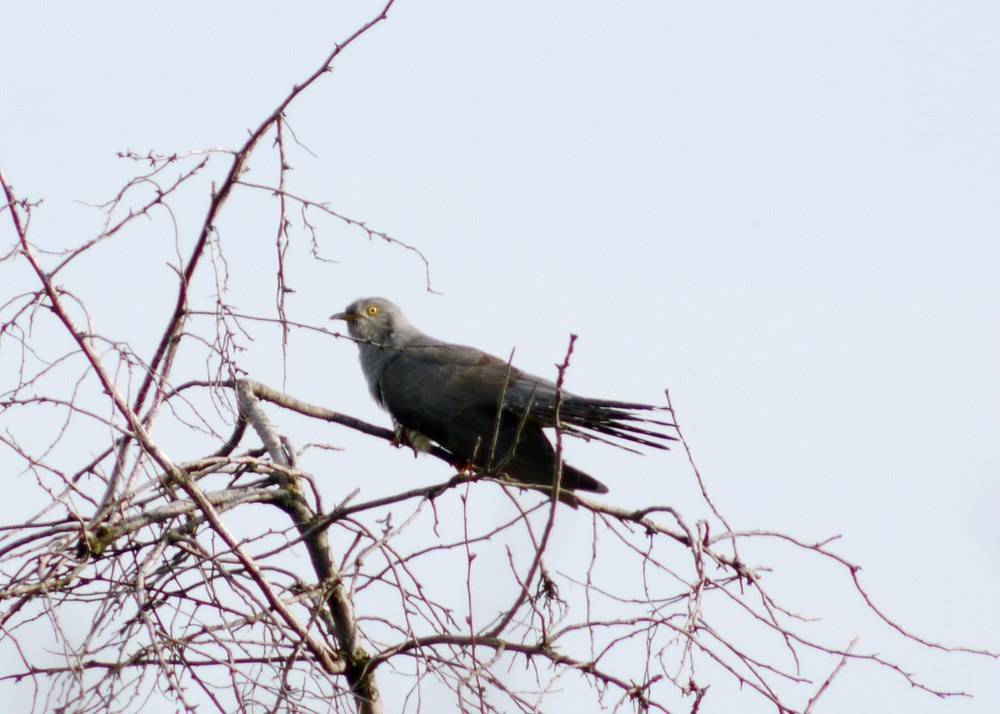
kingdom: Animalia
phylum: Chordata
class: Aves
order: Cuculiformes
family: Cuculidae
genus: Cuculus
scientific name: Cuculus canorus
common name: Common cuckoo
